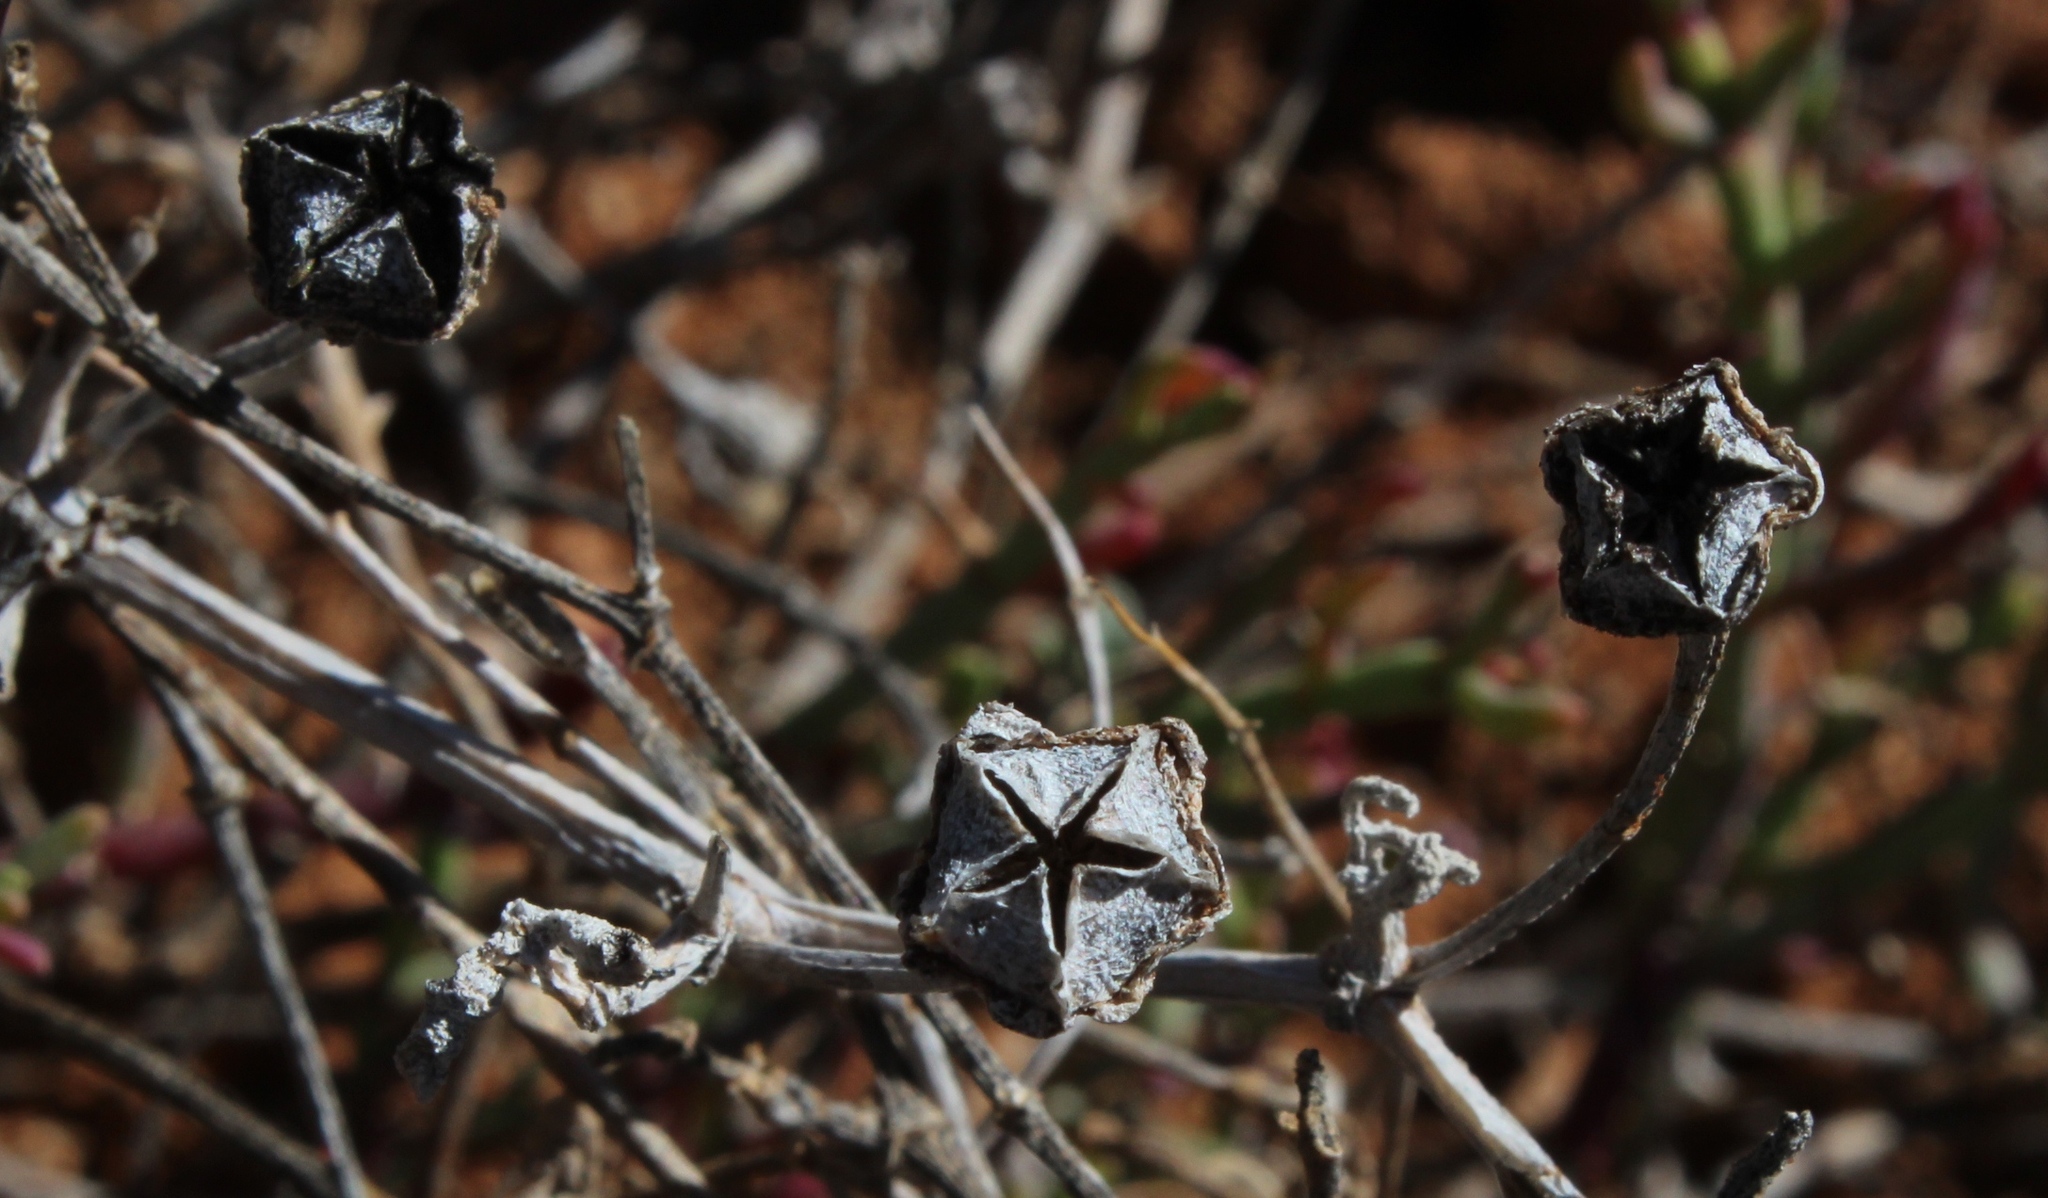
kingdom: Plantae
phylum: Tracheophyta
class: Magnoliopsida
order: Caryophyllales
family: Aizoaceae
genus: Lampranthus
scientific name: Lampranthus uniflorus
